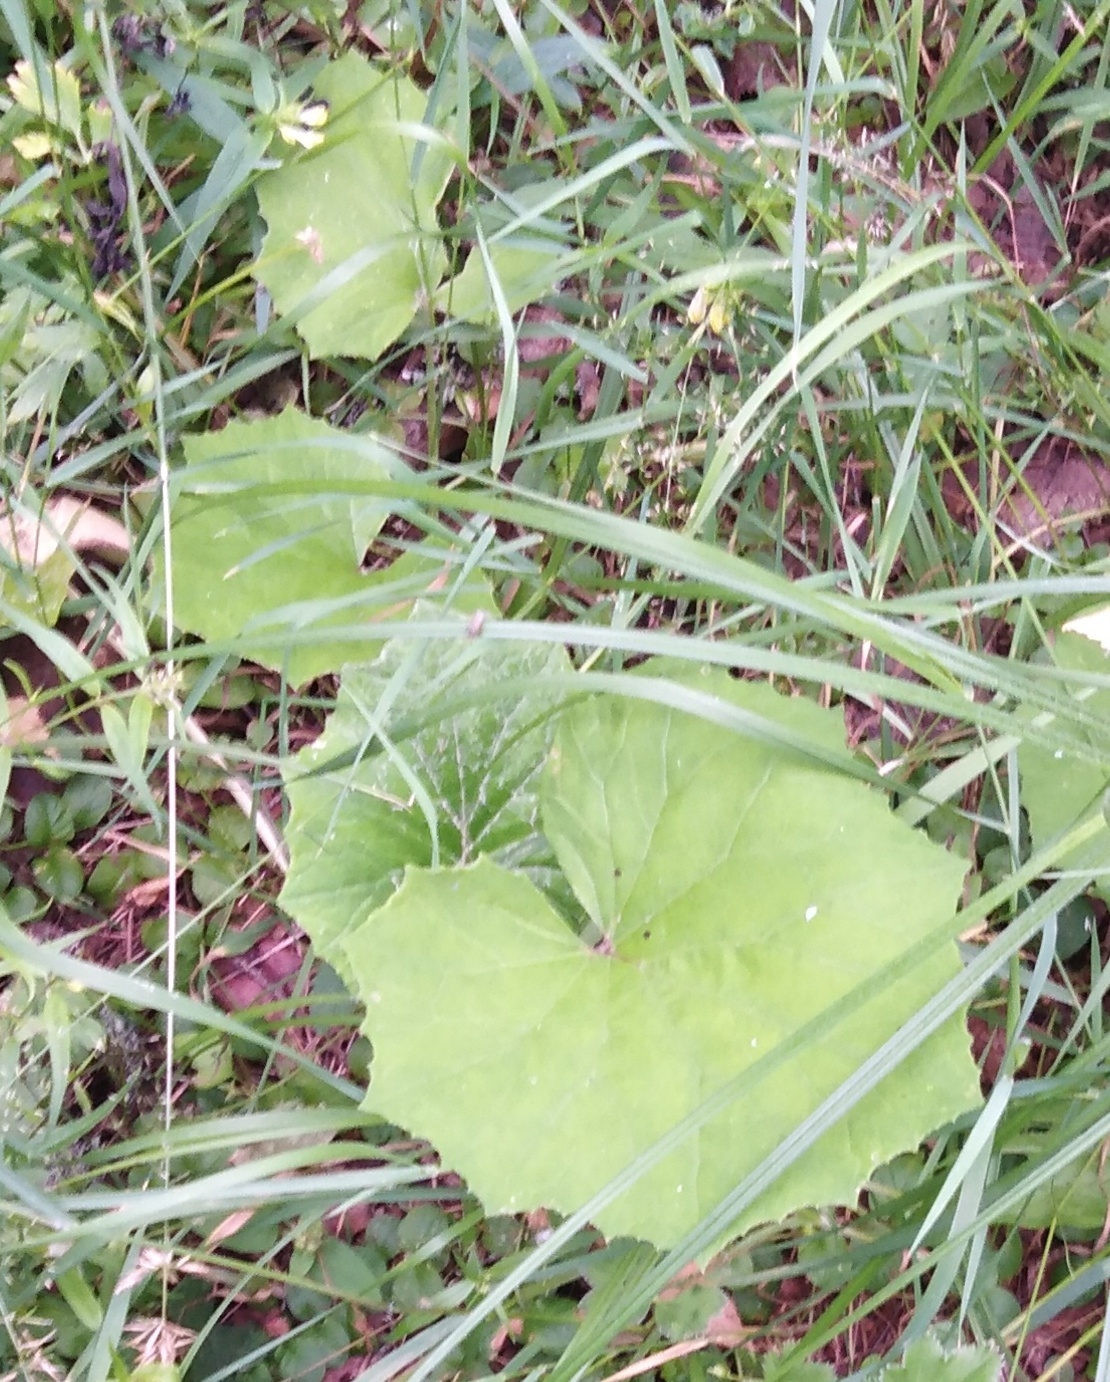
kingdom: Plantae
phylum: Tracheophyta
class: Magnoliopsida
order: Asterales
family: Asteraceae
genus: Tussilago
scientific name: Tussilago farfara
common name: Coltsfoot
